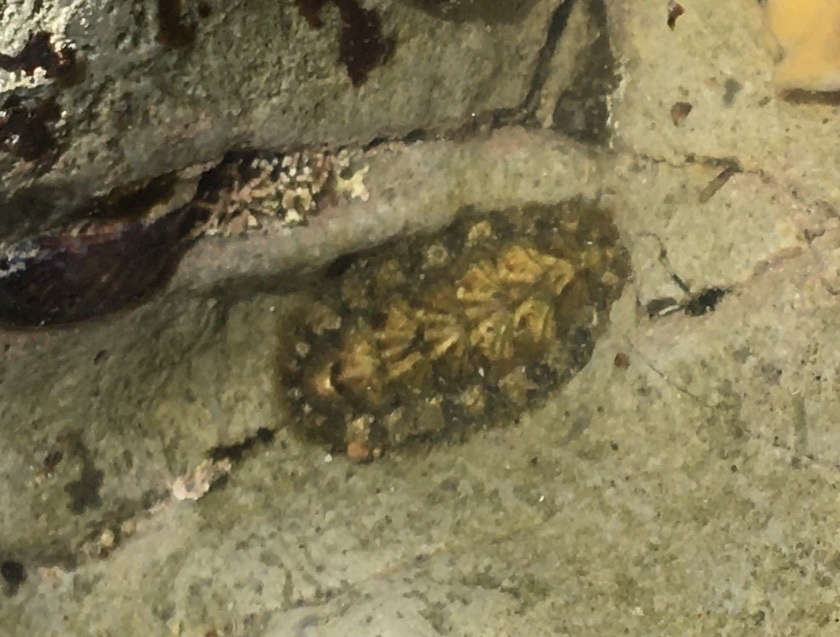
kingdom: Animalia
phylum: Mollusca
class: Polyplacophora
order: Chitonida
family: Tonicellidae
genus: Nuttallina
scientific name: Nuttallina californica
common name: California nuttall chiton
